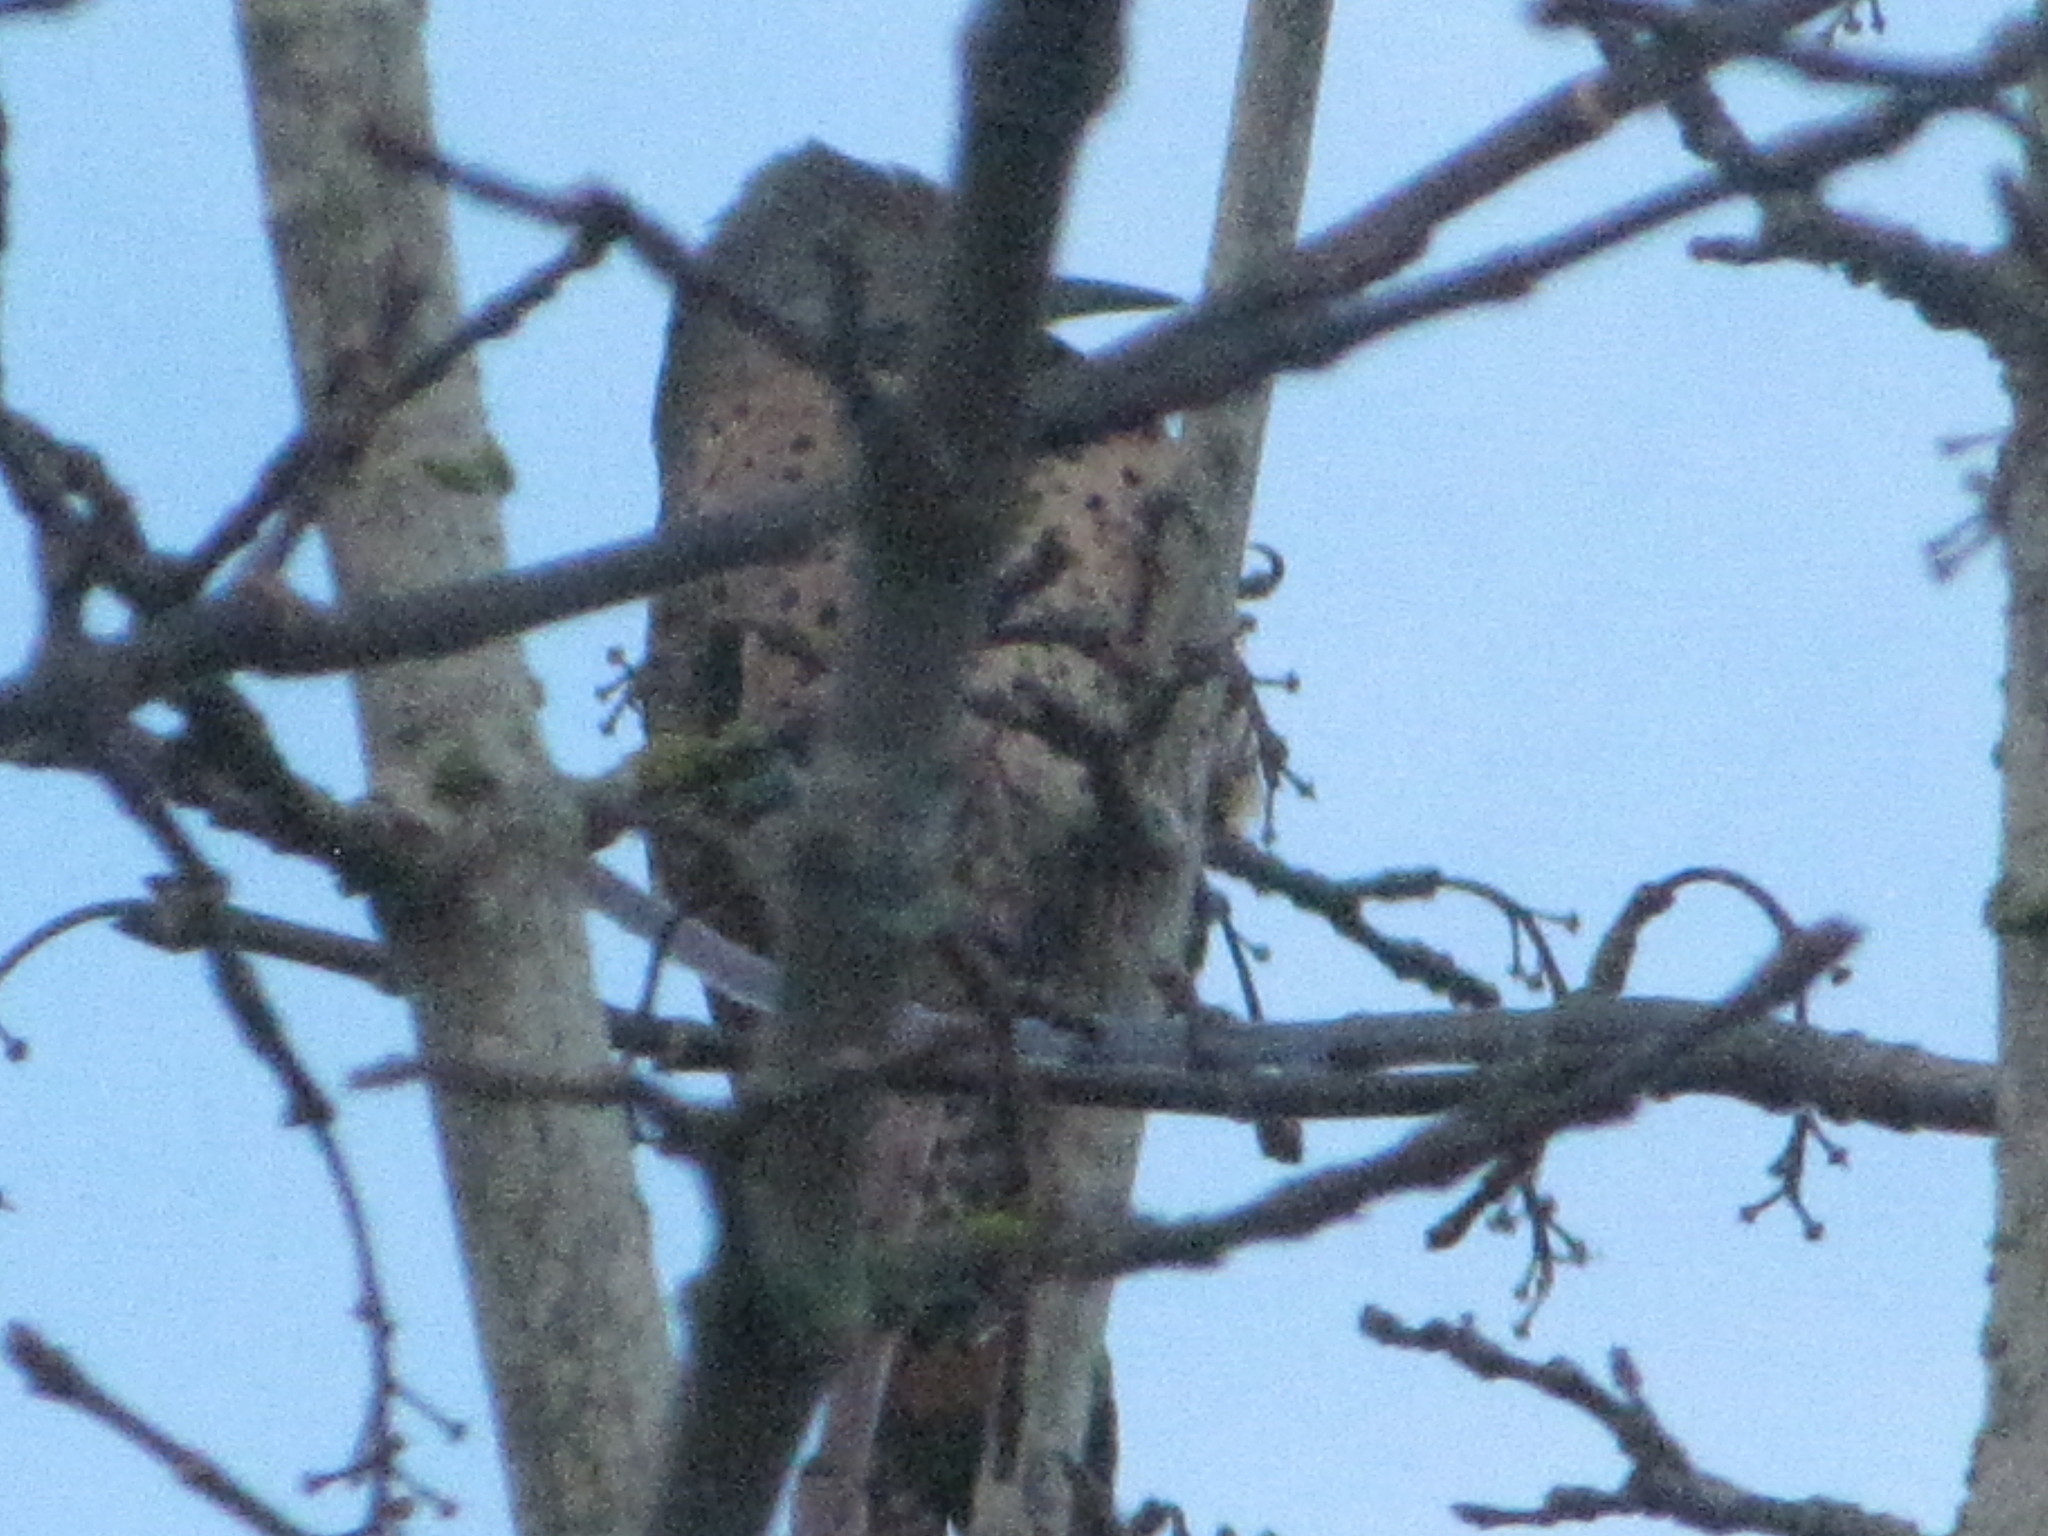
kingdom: Animalia
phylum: Chordata
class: Aves
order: Piciformes
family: Picidae
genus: Colaptes
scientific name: Colaptes auratus
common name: Northern flicker
